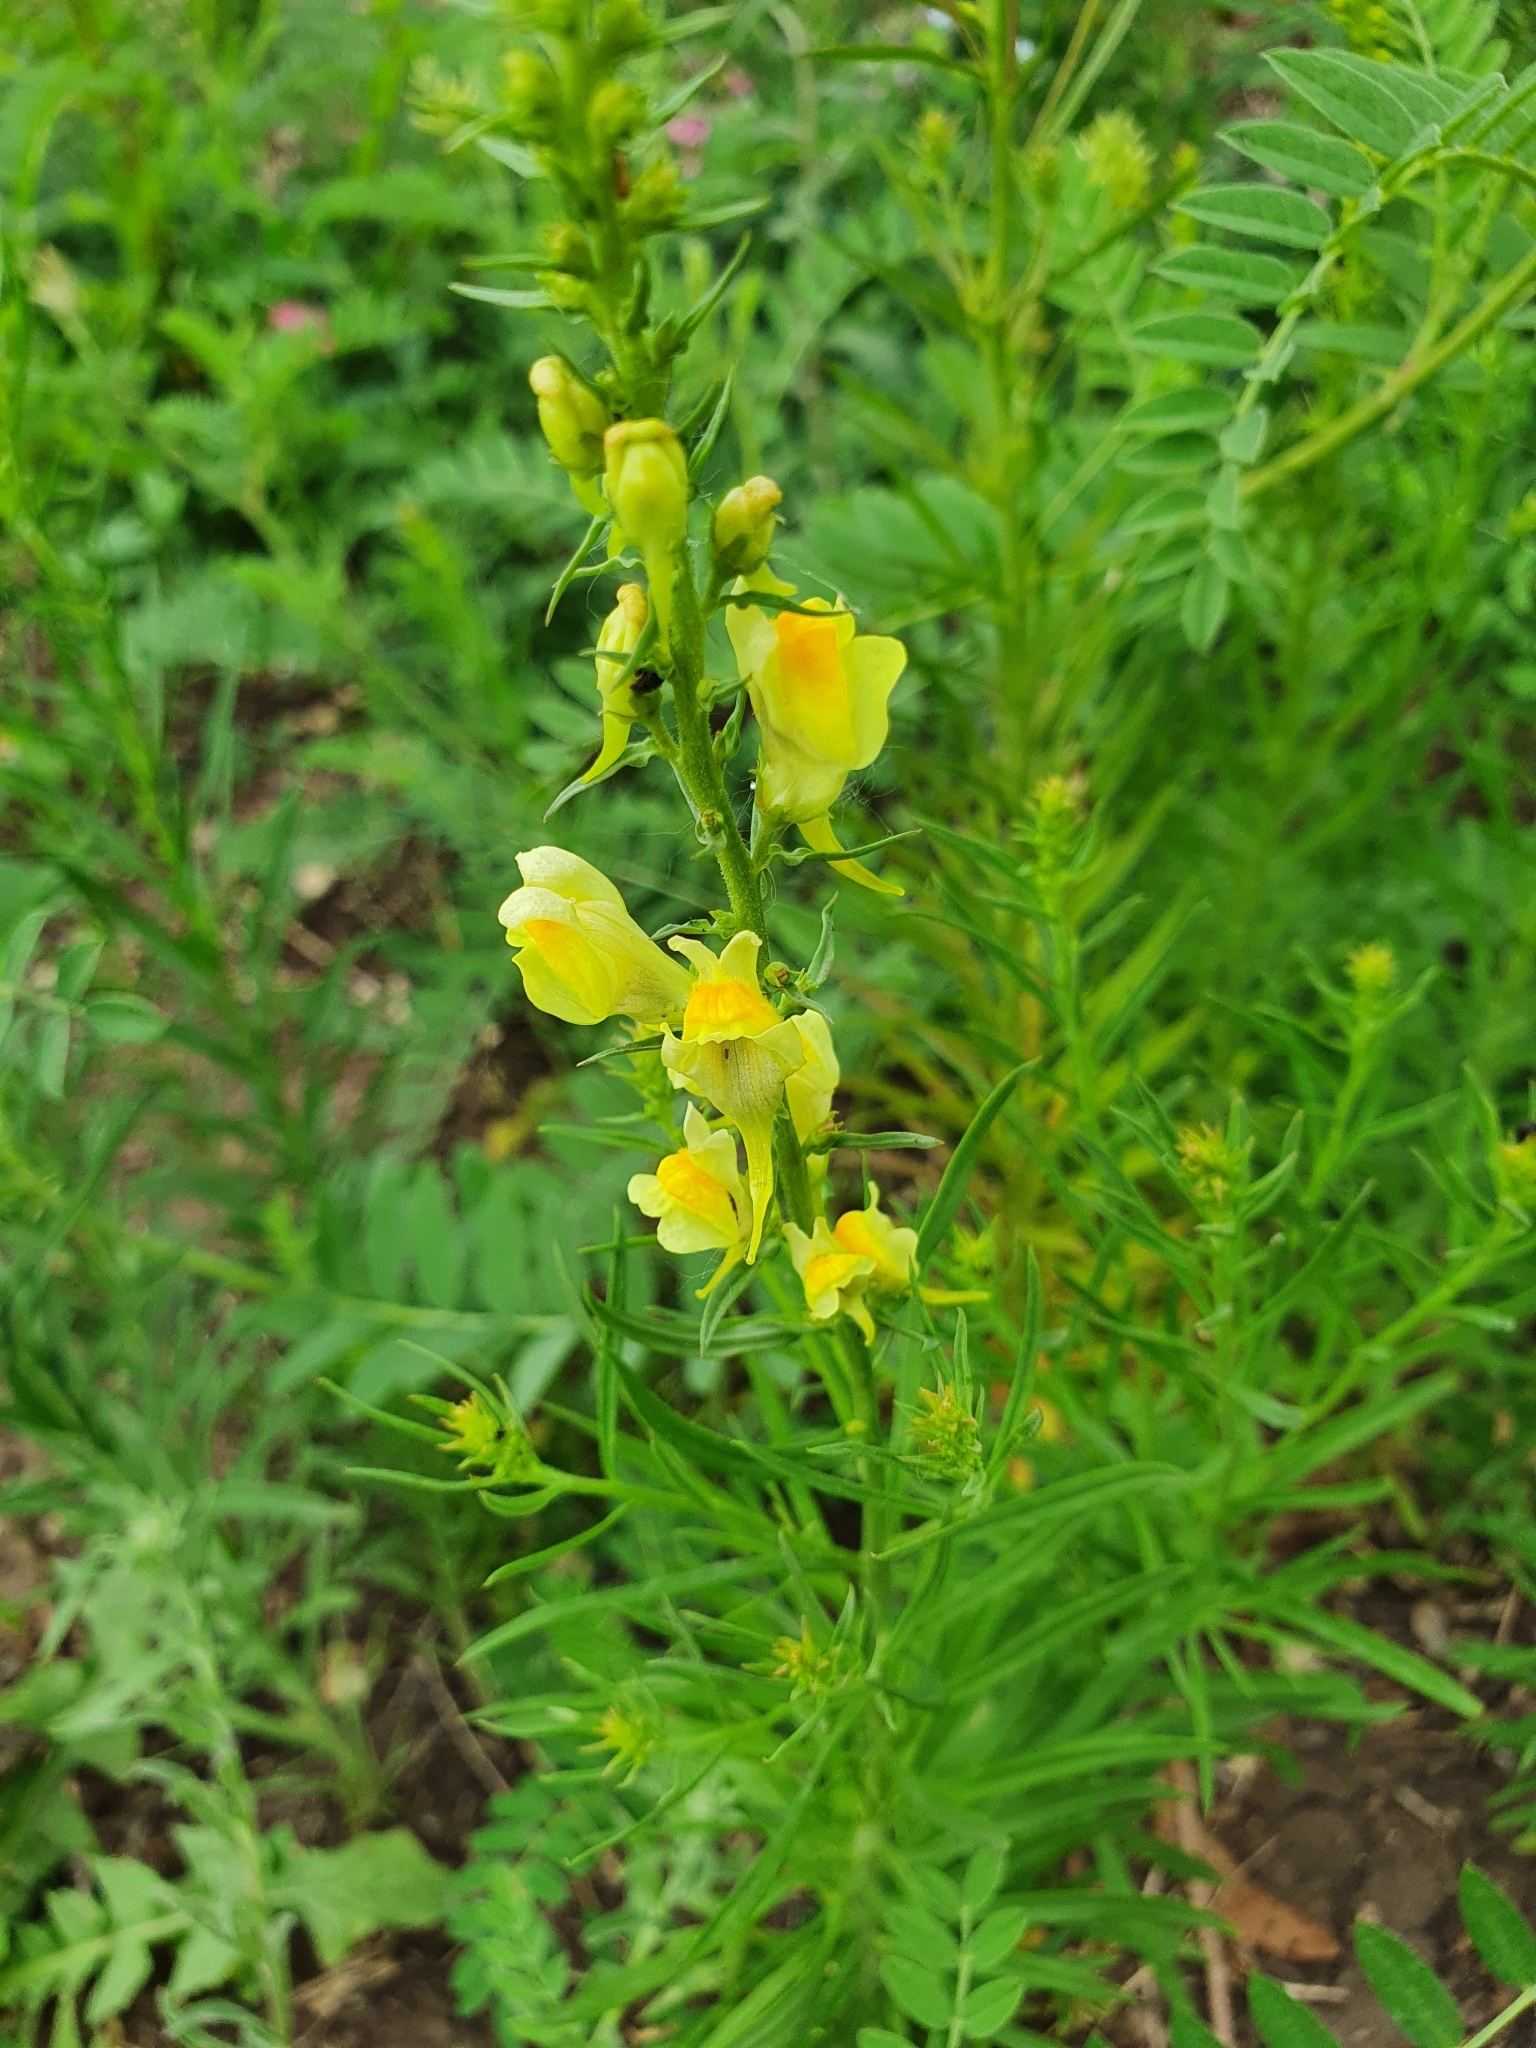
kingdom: Plantae
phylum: Tracheophyta
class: Magnoliopsida
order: Lamiales
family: Plantaginaceae
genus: Linaria
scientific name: Linaria vulgaris
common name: Butter and eggs
